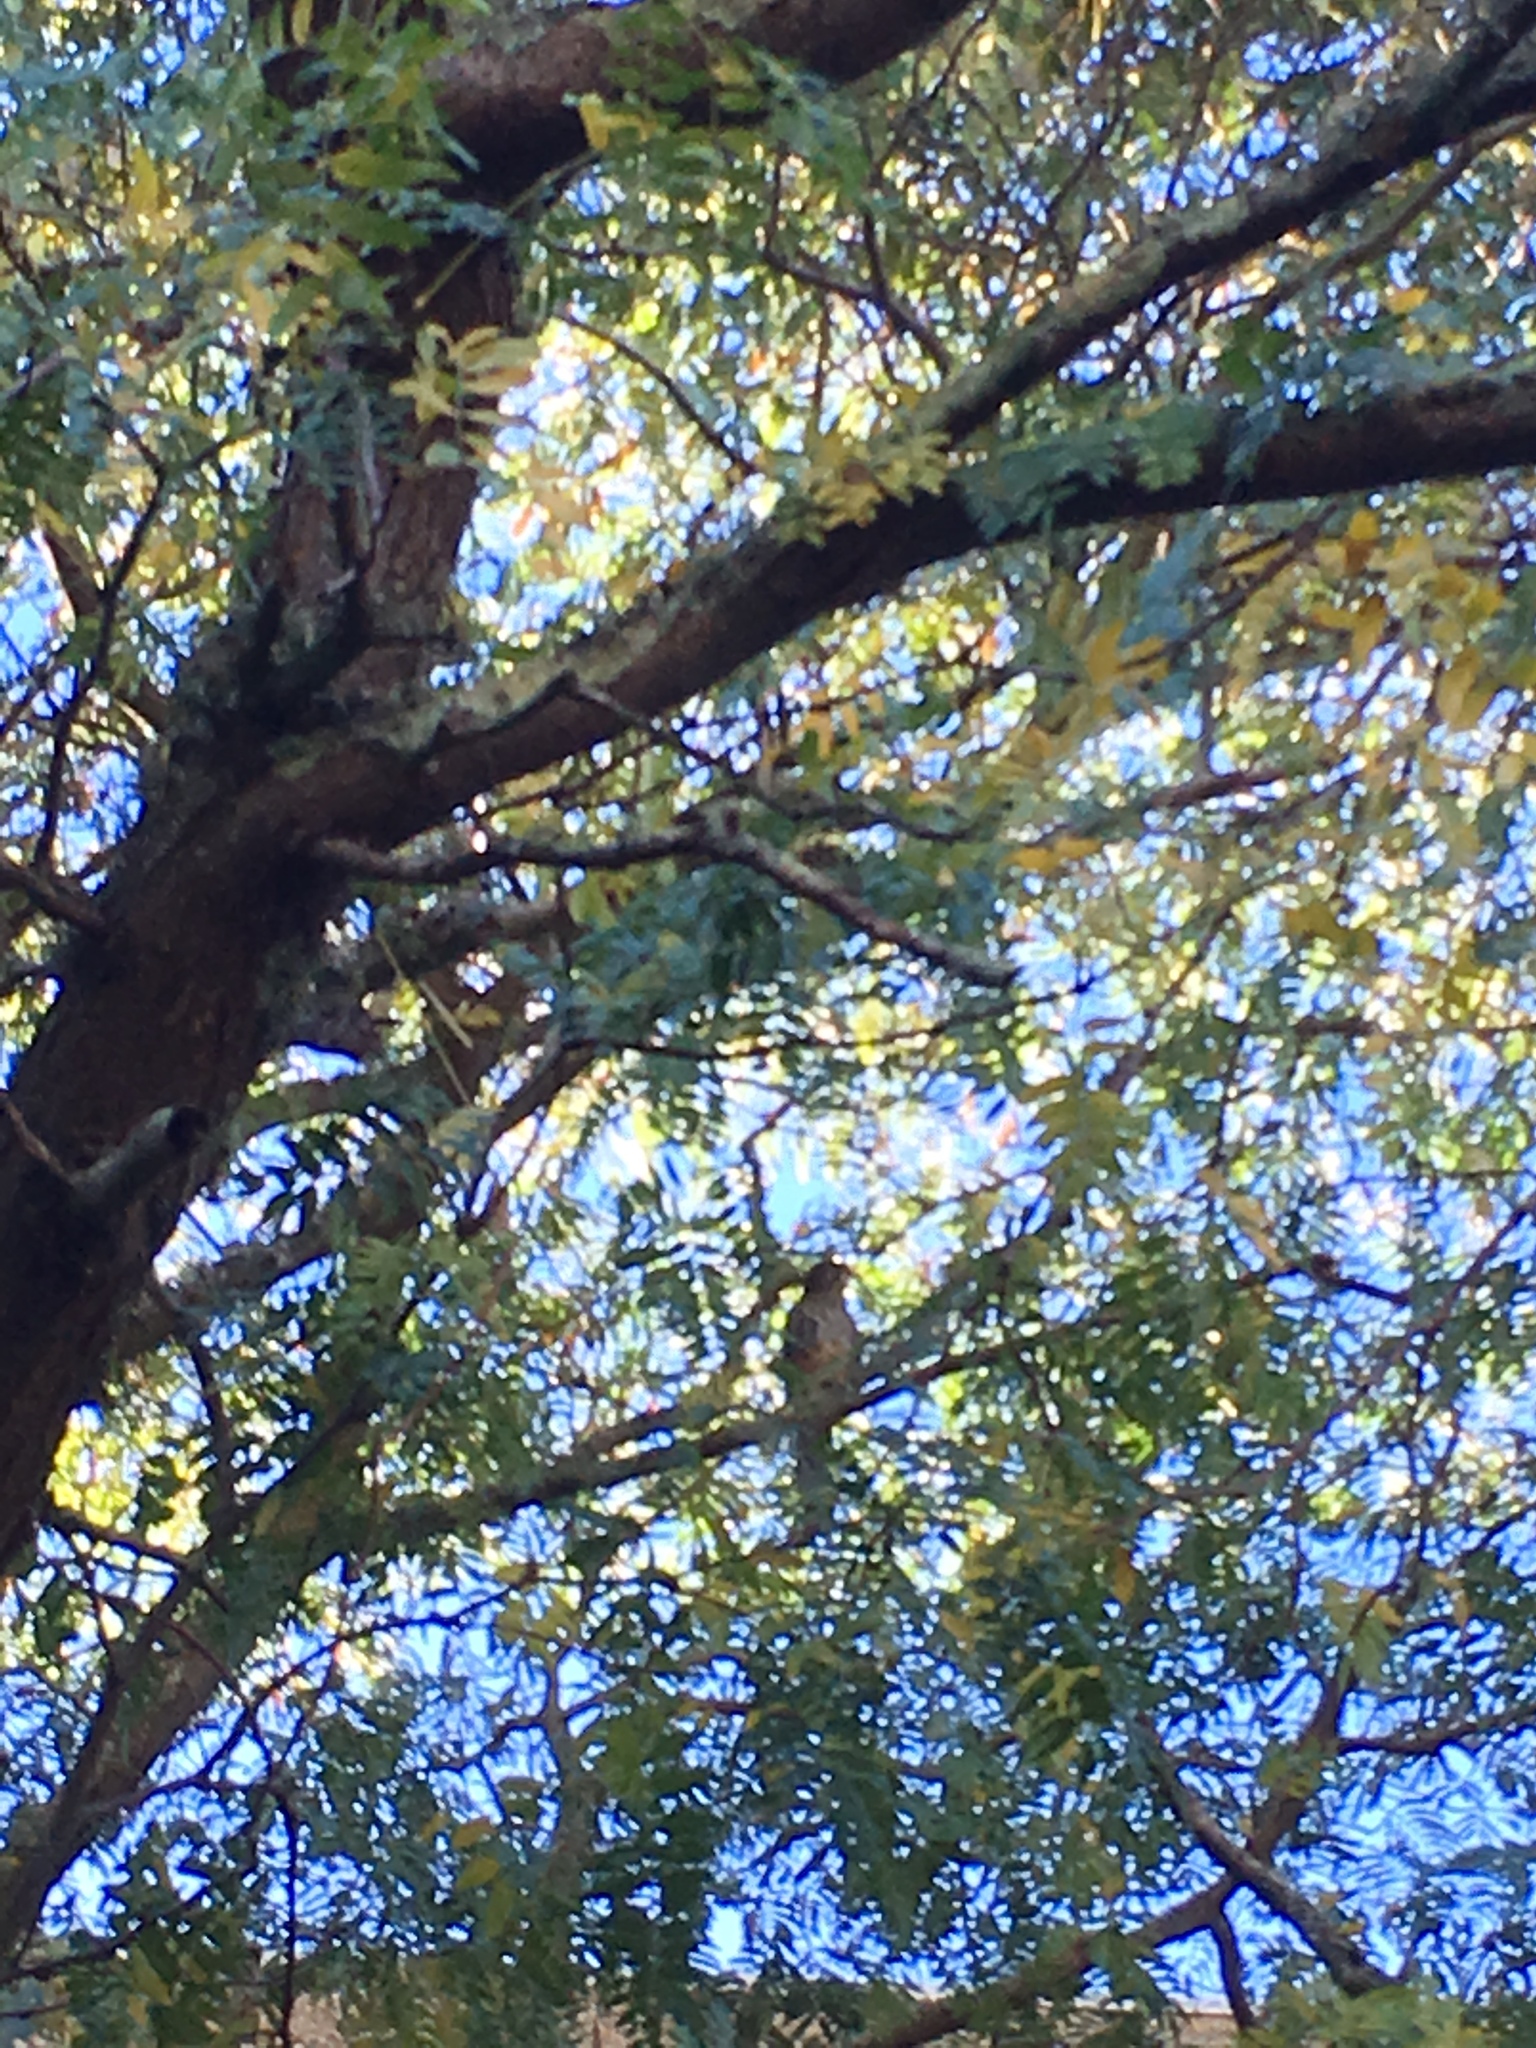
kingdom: Animalia
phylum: Chordata
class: Aves
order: Falconiformes
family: Falconidae
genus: Falco
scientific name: Falco novaeseelandiae
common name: New zealand falcon
